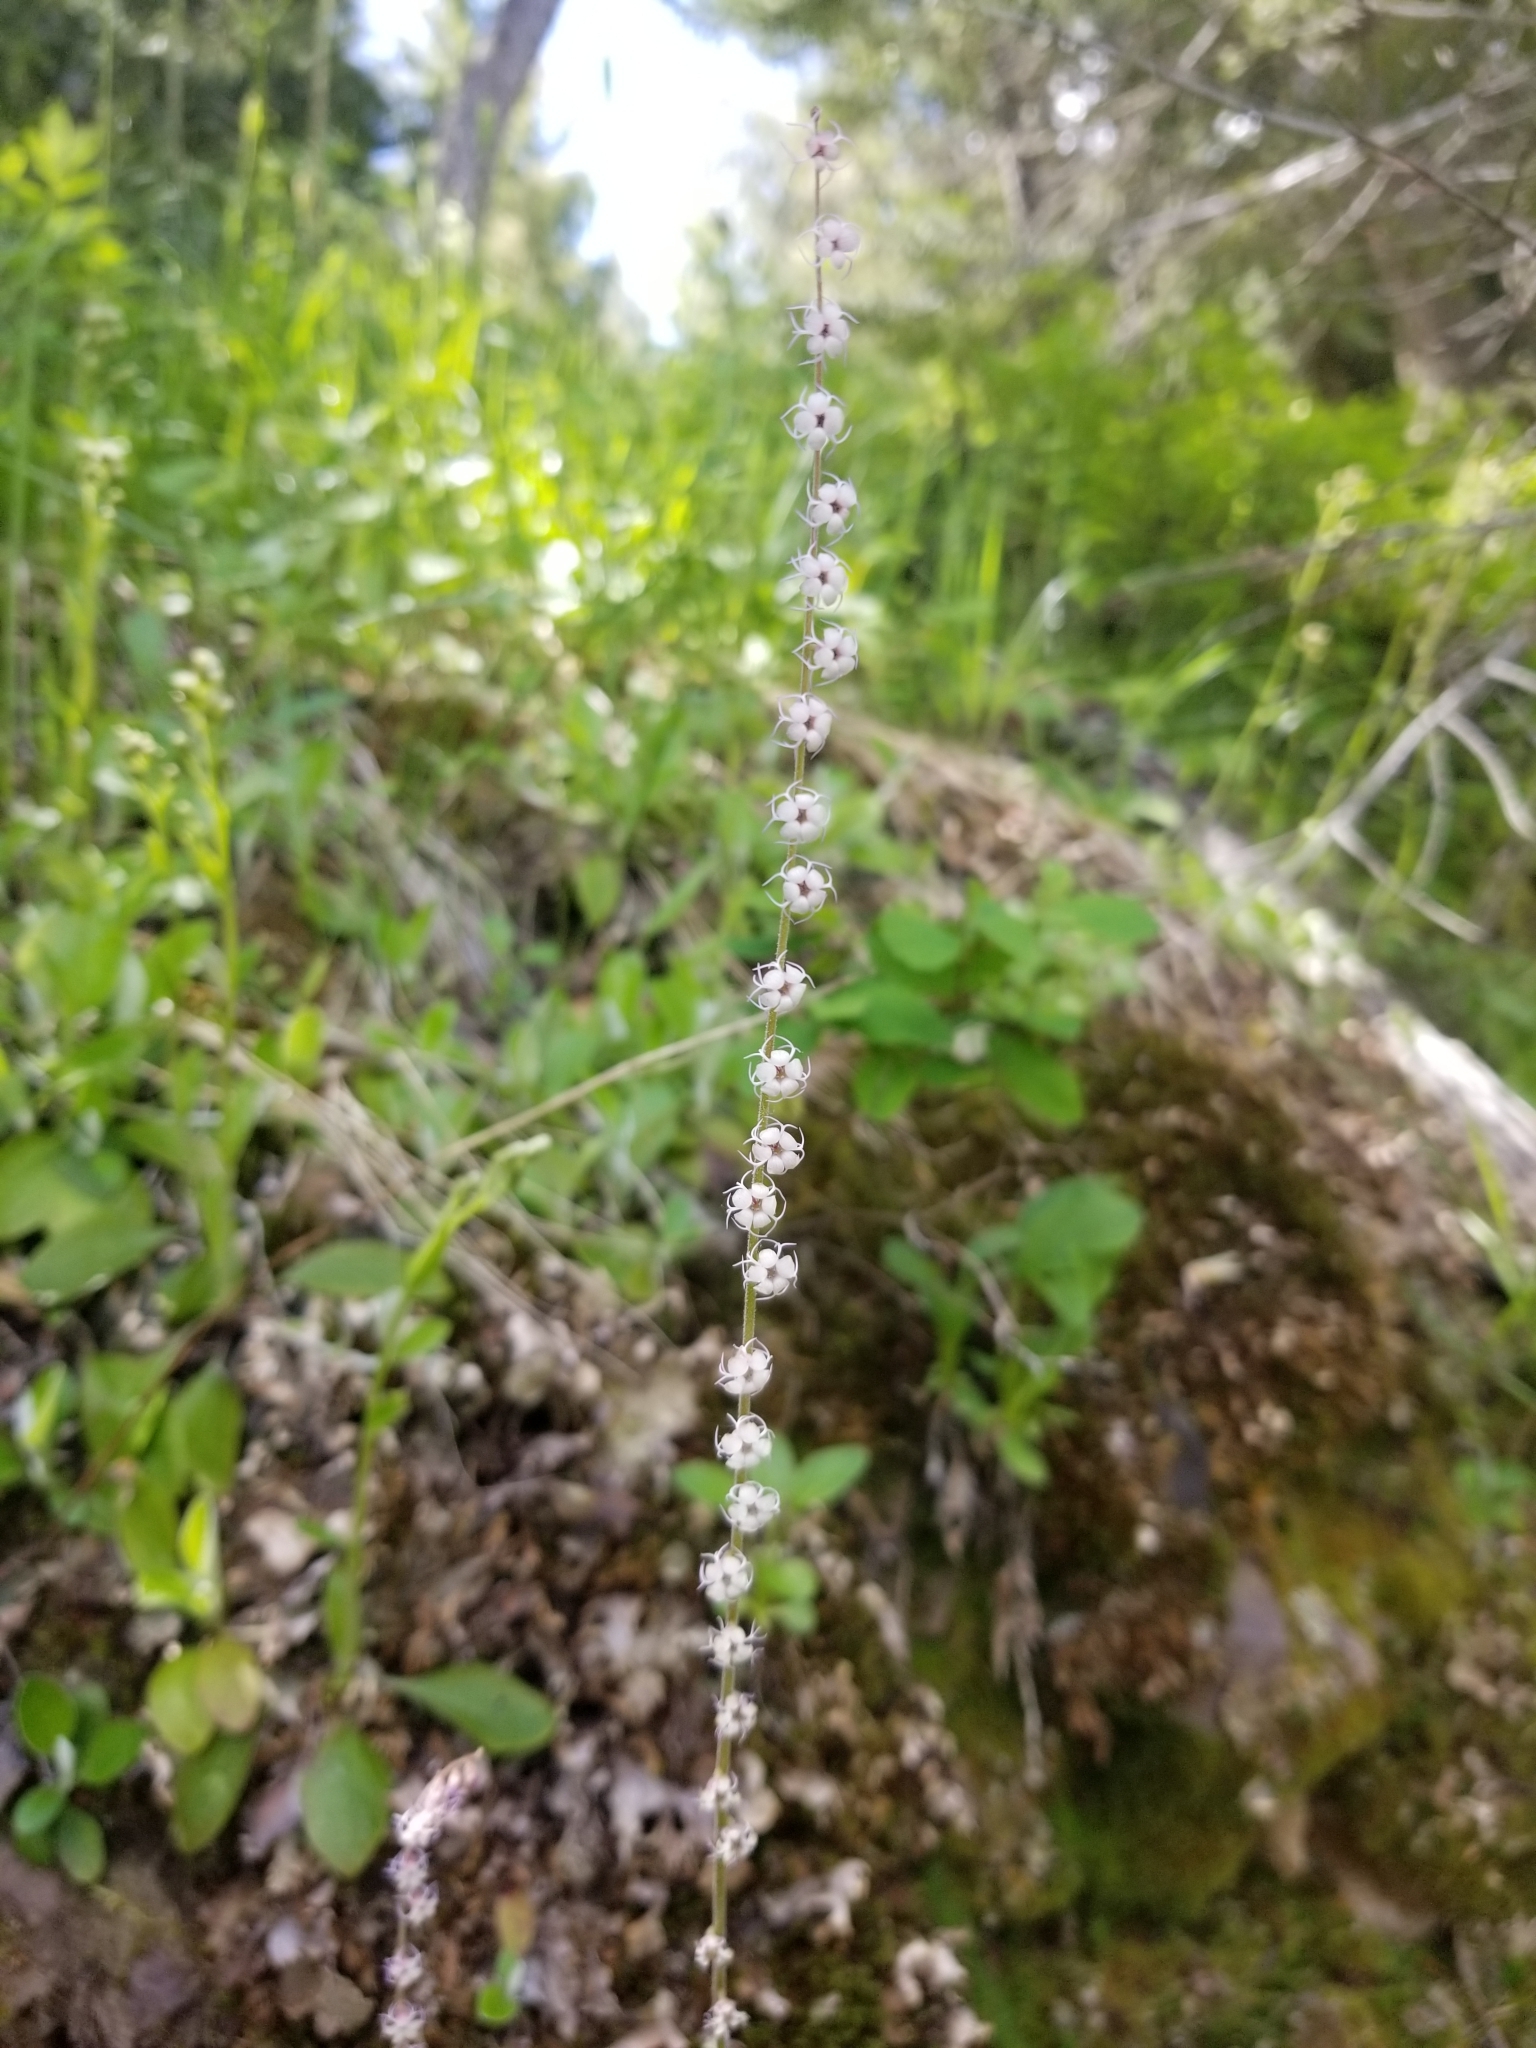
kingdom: Plantae
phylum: Tracheophyta
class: Magnoliopsida
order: Saxifragales
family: Saxifragaceae
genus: Ozomelis
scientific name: Ozomelis stauropetala
